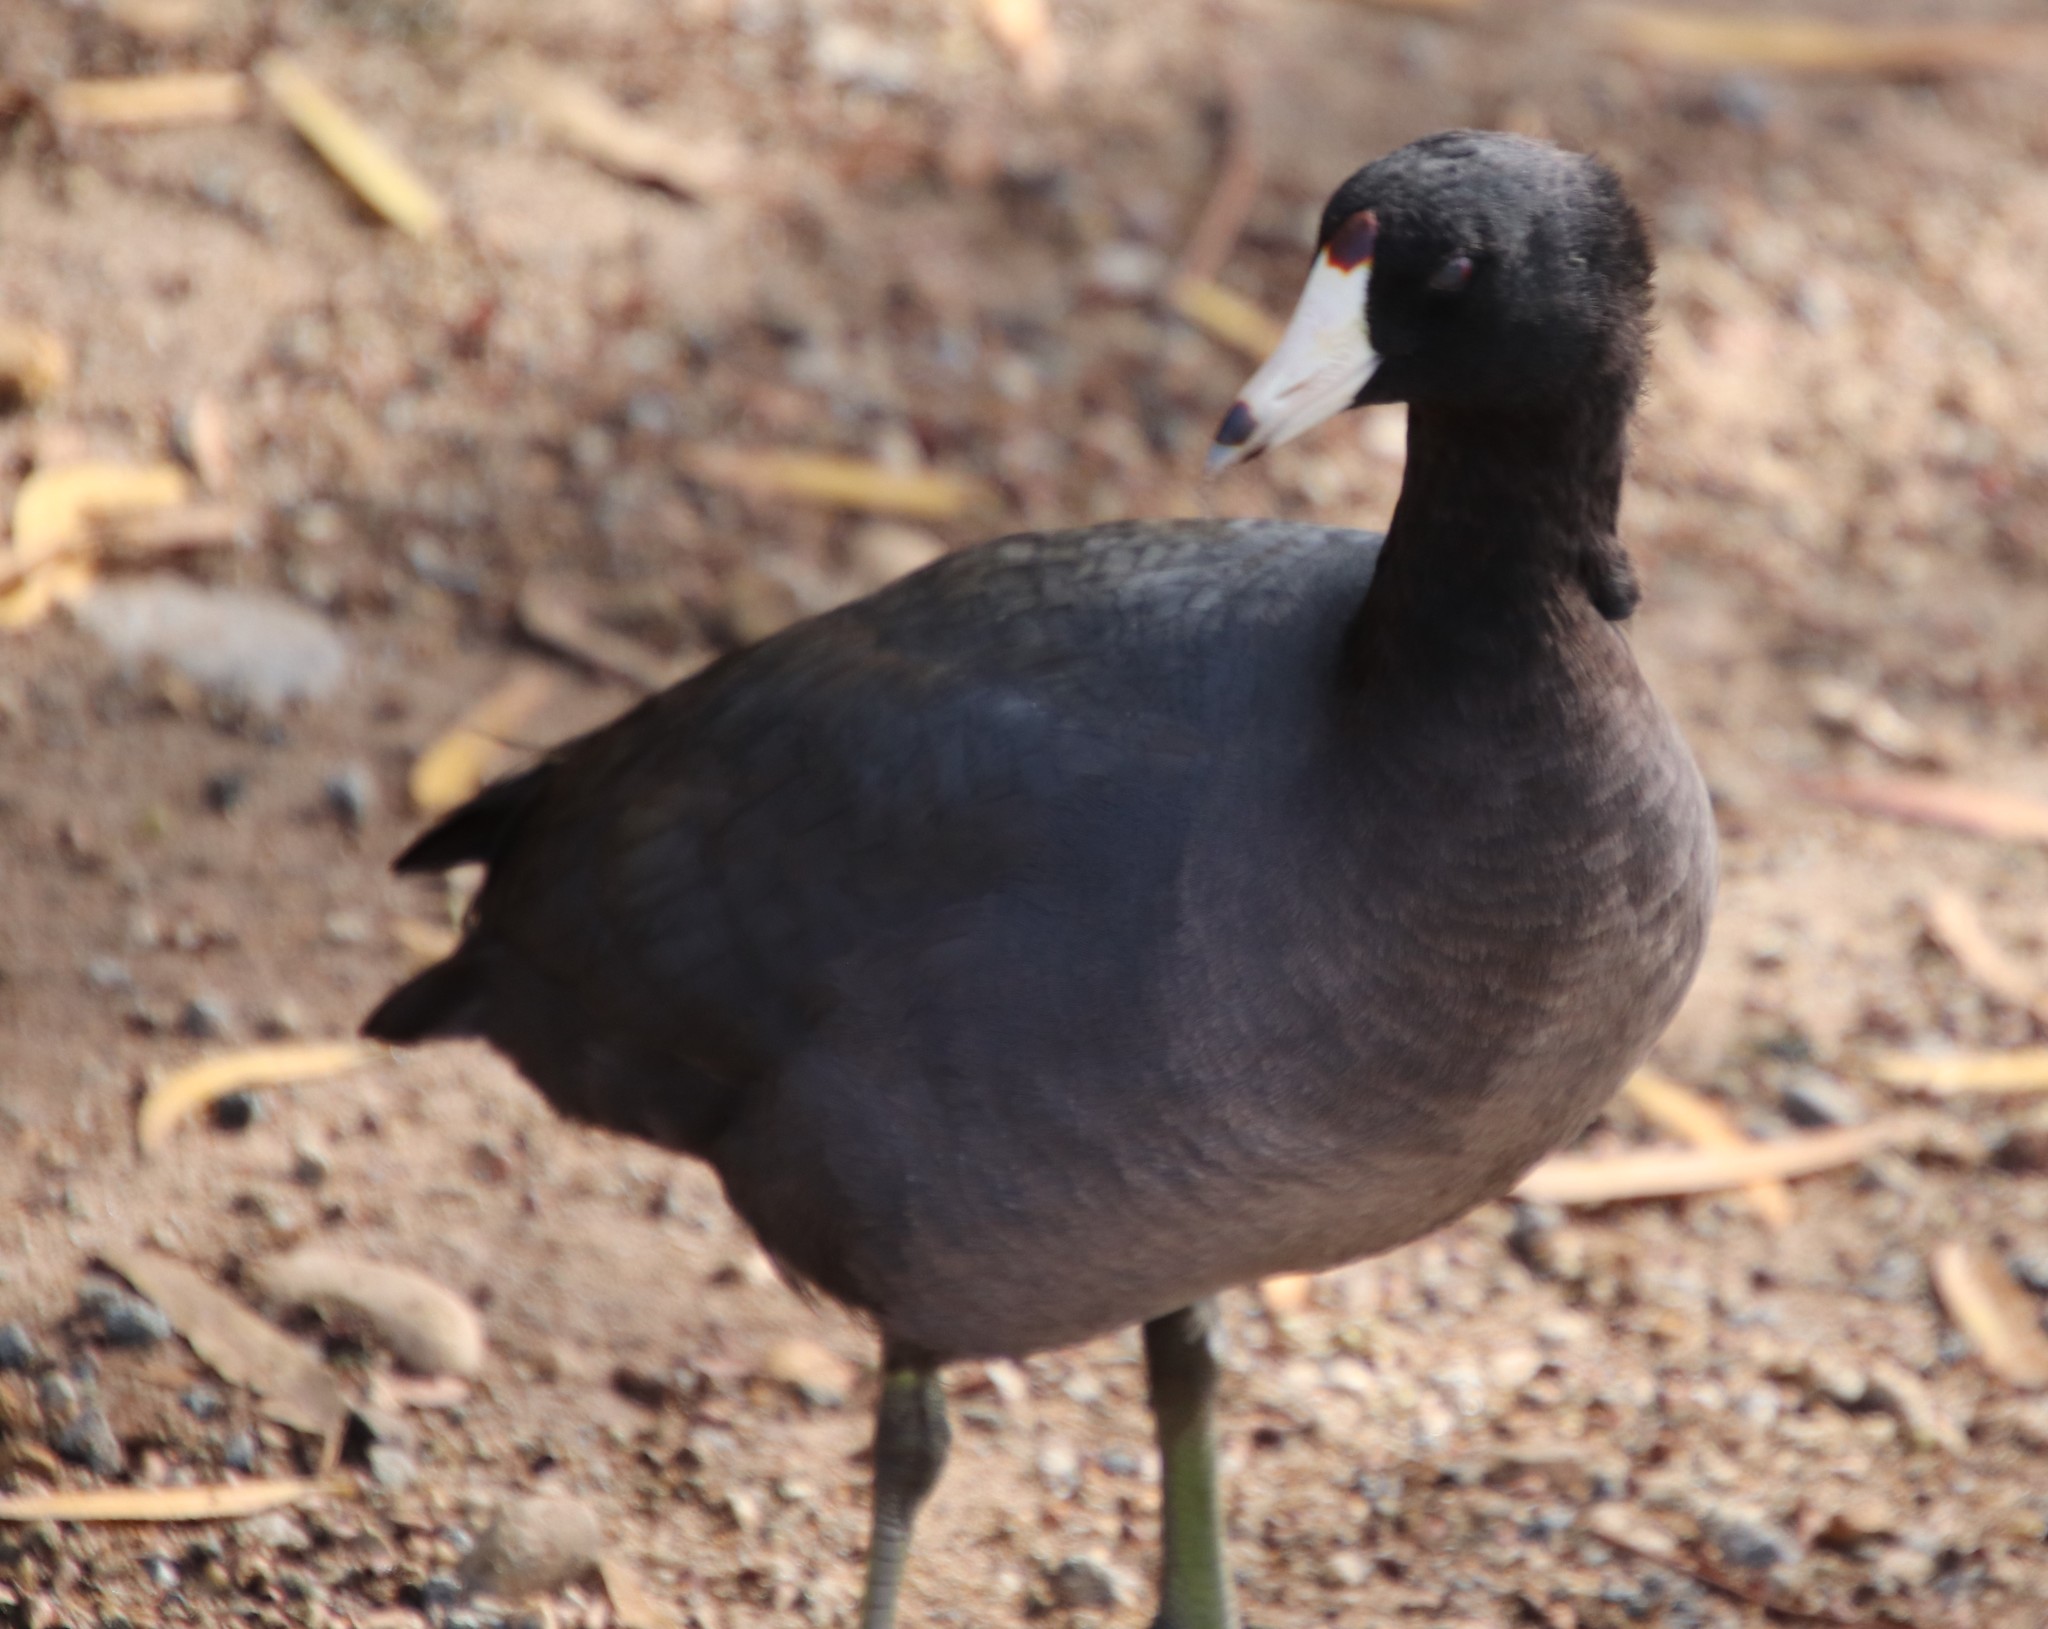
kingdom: Animalia
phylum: Chordata
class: Aves
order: Gruiformes
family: Rallidae
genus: Fulica
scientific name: Fulica americana
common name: American coot
